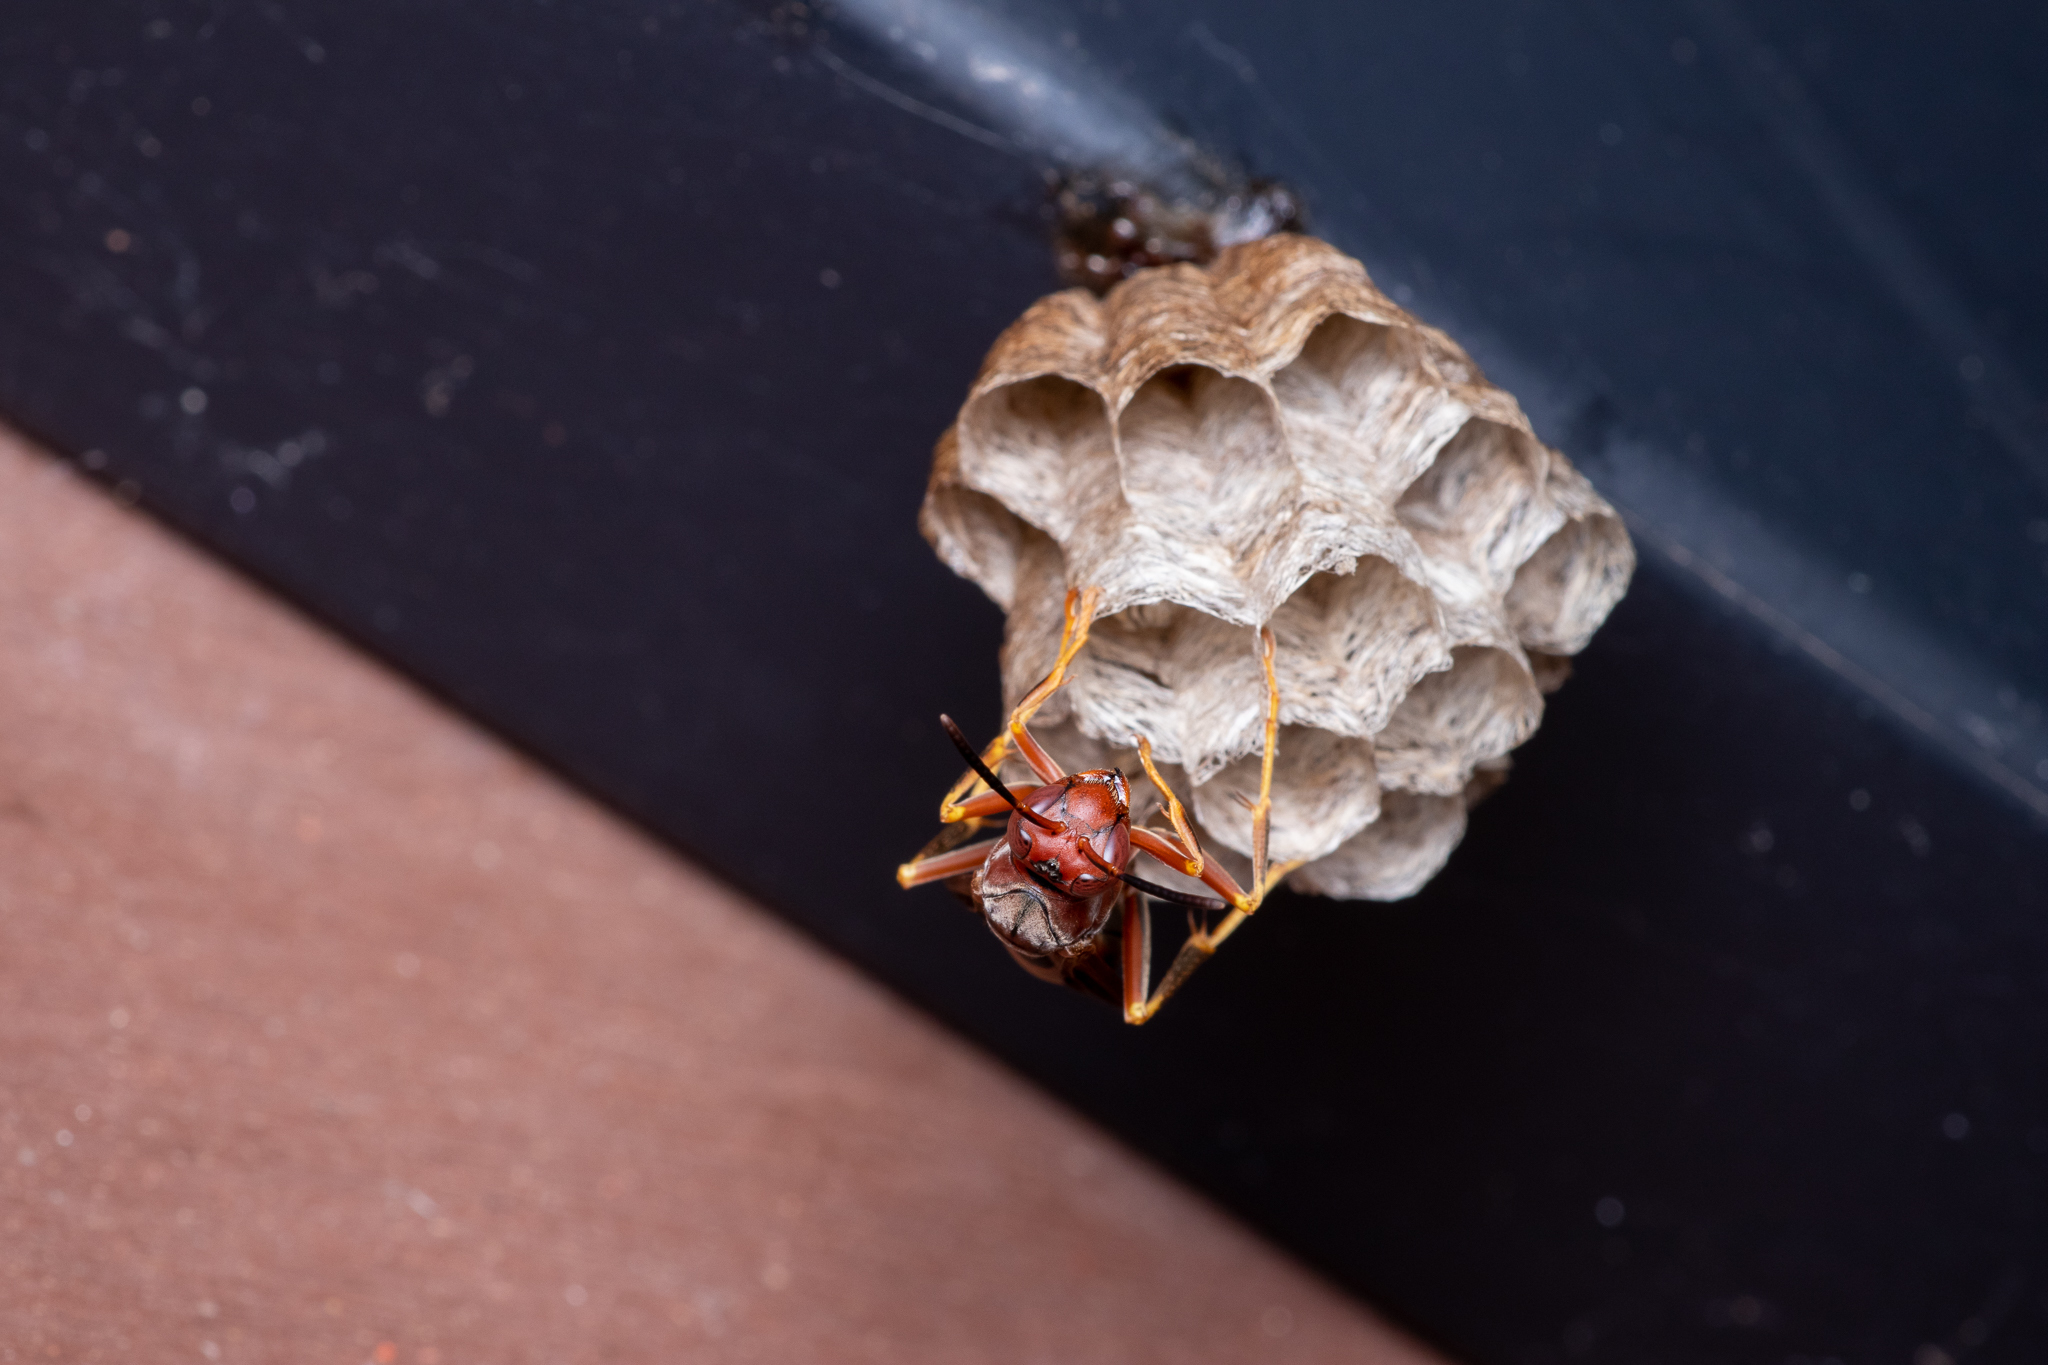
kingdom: Animalia
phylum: Arthropoda
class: Insecta
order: Hymenoptera
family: Vespidae
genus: Fuscopolistes
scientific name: Fuscopolistes
